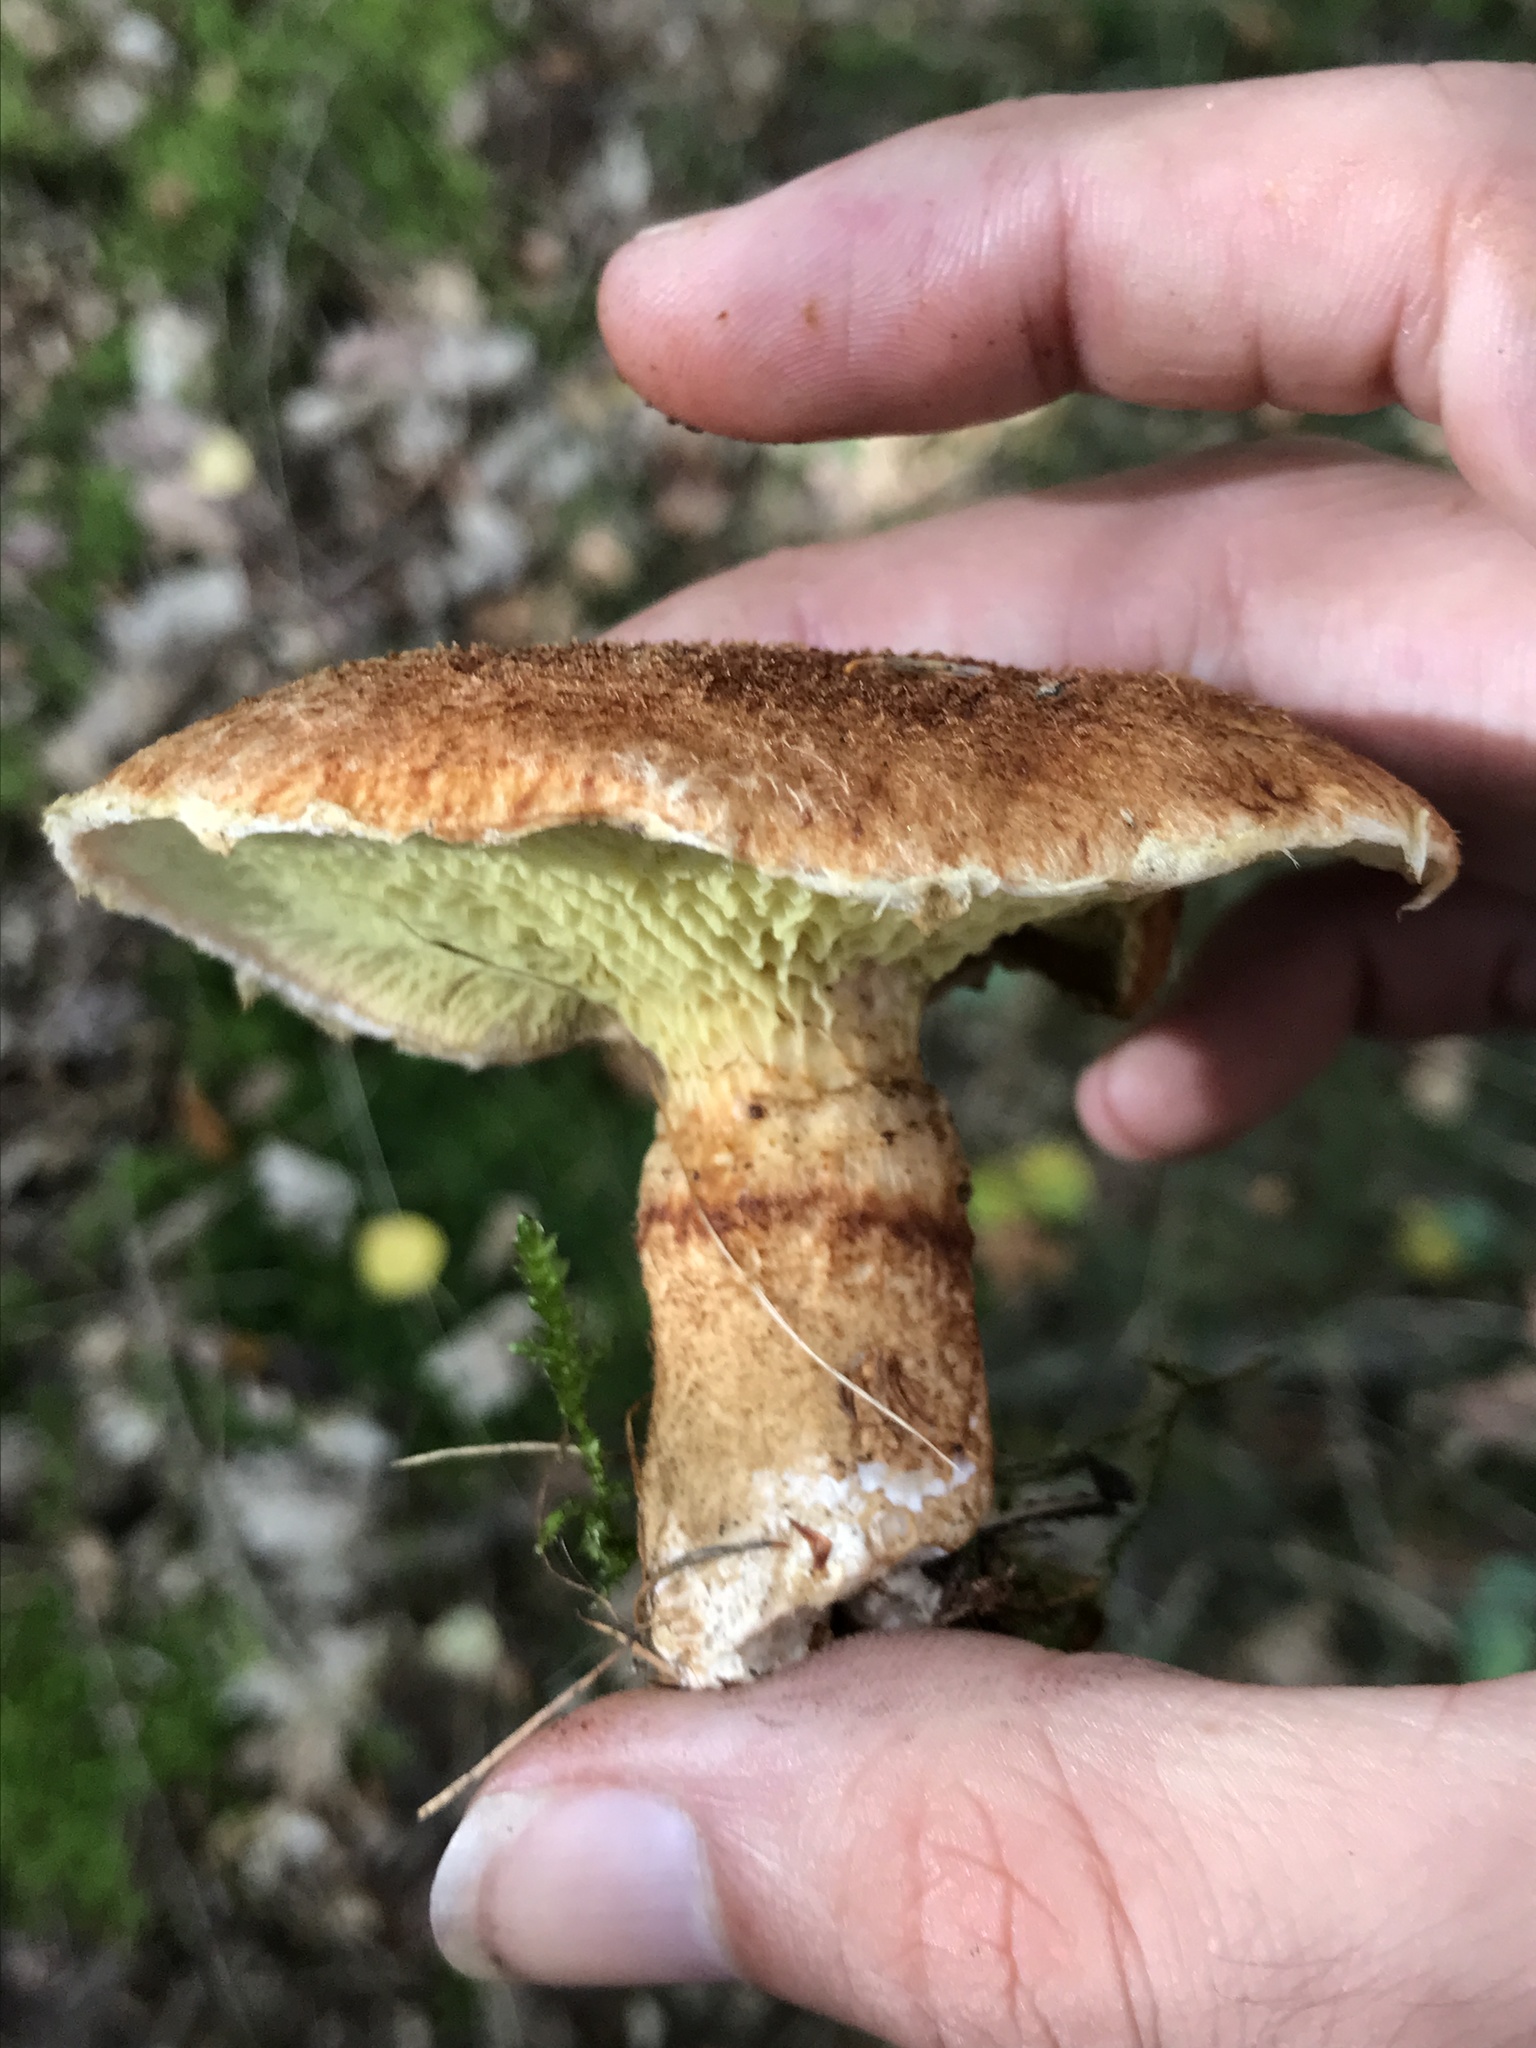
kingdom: Fungi
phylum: Basidiomycota
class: Agaricomycetes
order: Boletales
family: Suillaceae
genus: Suillus
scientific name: Suillus cavipes
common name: Hollow bolete
